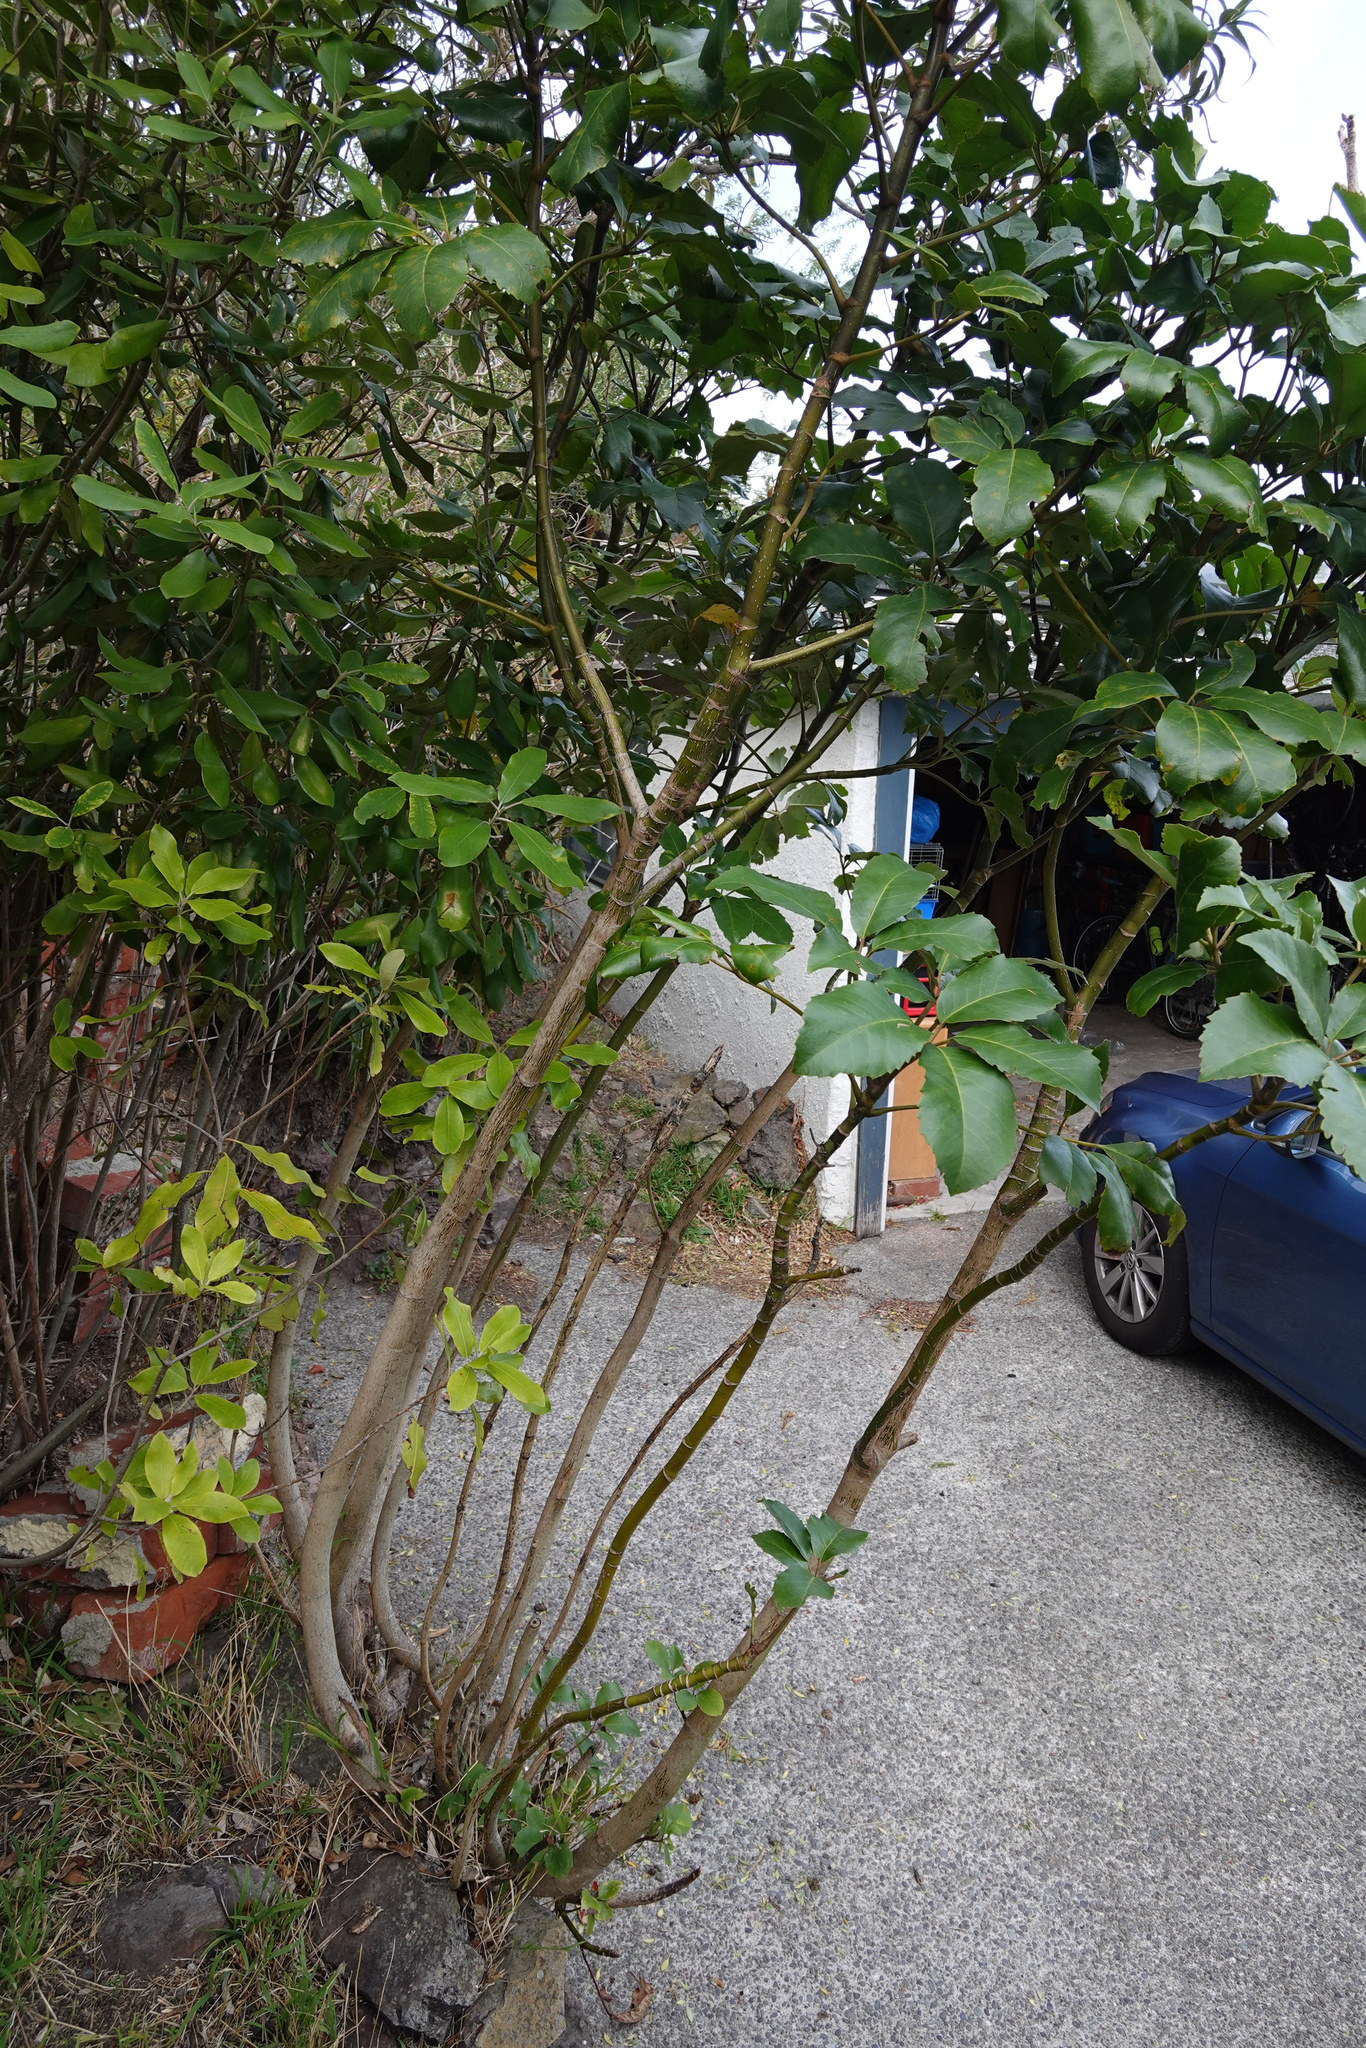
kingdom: Plantae
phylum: Tracheophyta
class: Magnoliopsida
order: Apiales
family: Araliaceae
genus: Neopanax
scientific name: Neopanax arboreus
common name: Five-fingers
